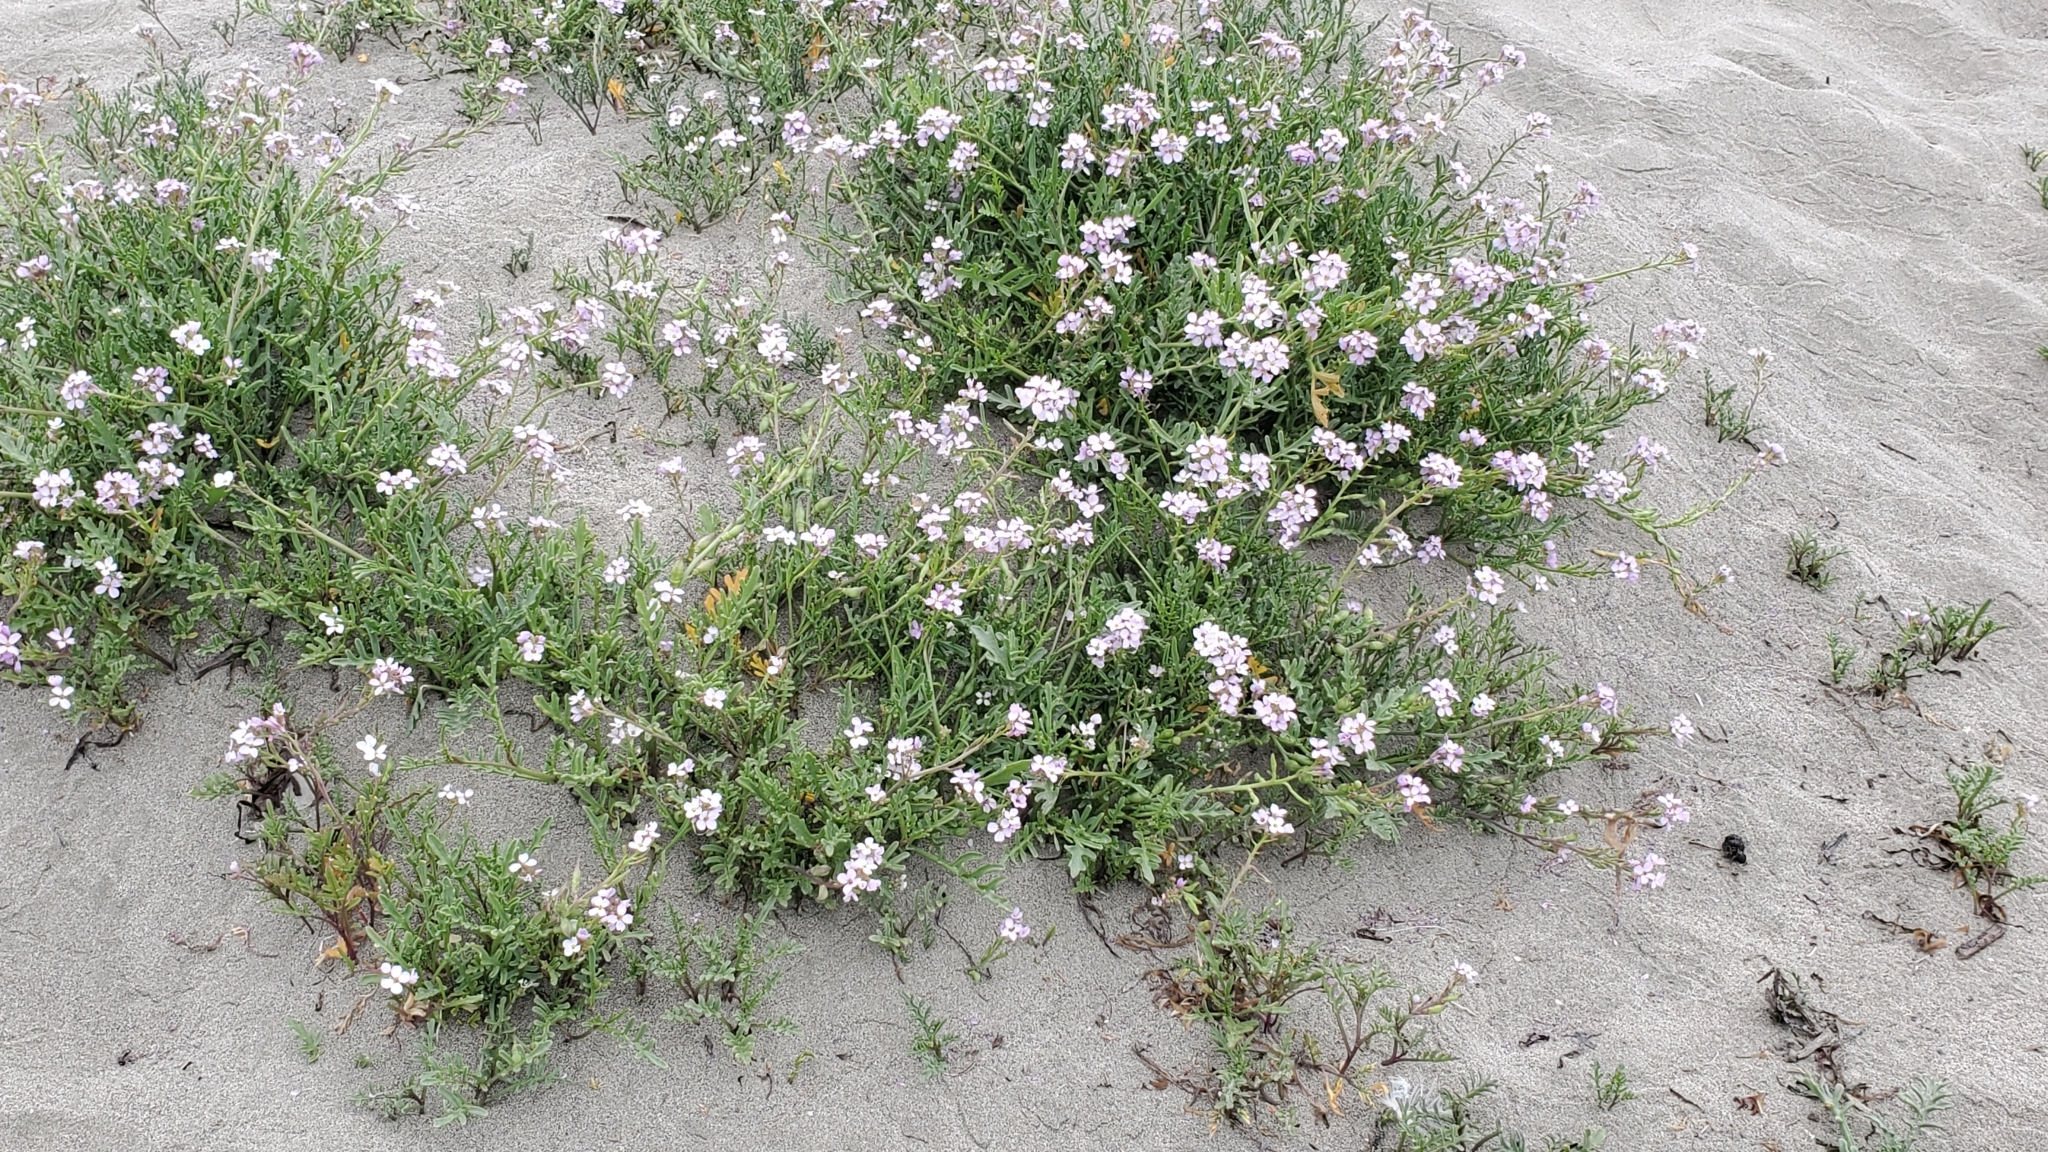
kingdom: Plantae
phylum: Tracheophyta
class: Magnoliopsida
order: Brassicales
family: Brassicaceae
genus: Cakile
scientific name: Cakile maritima
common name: Sea rocket
